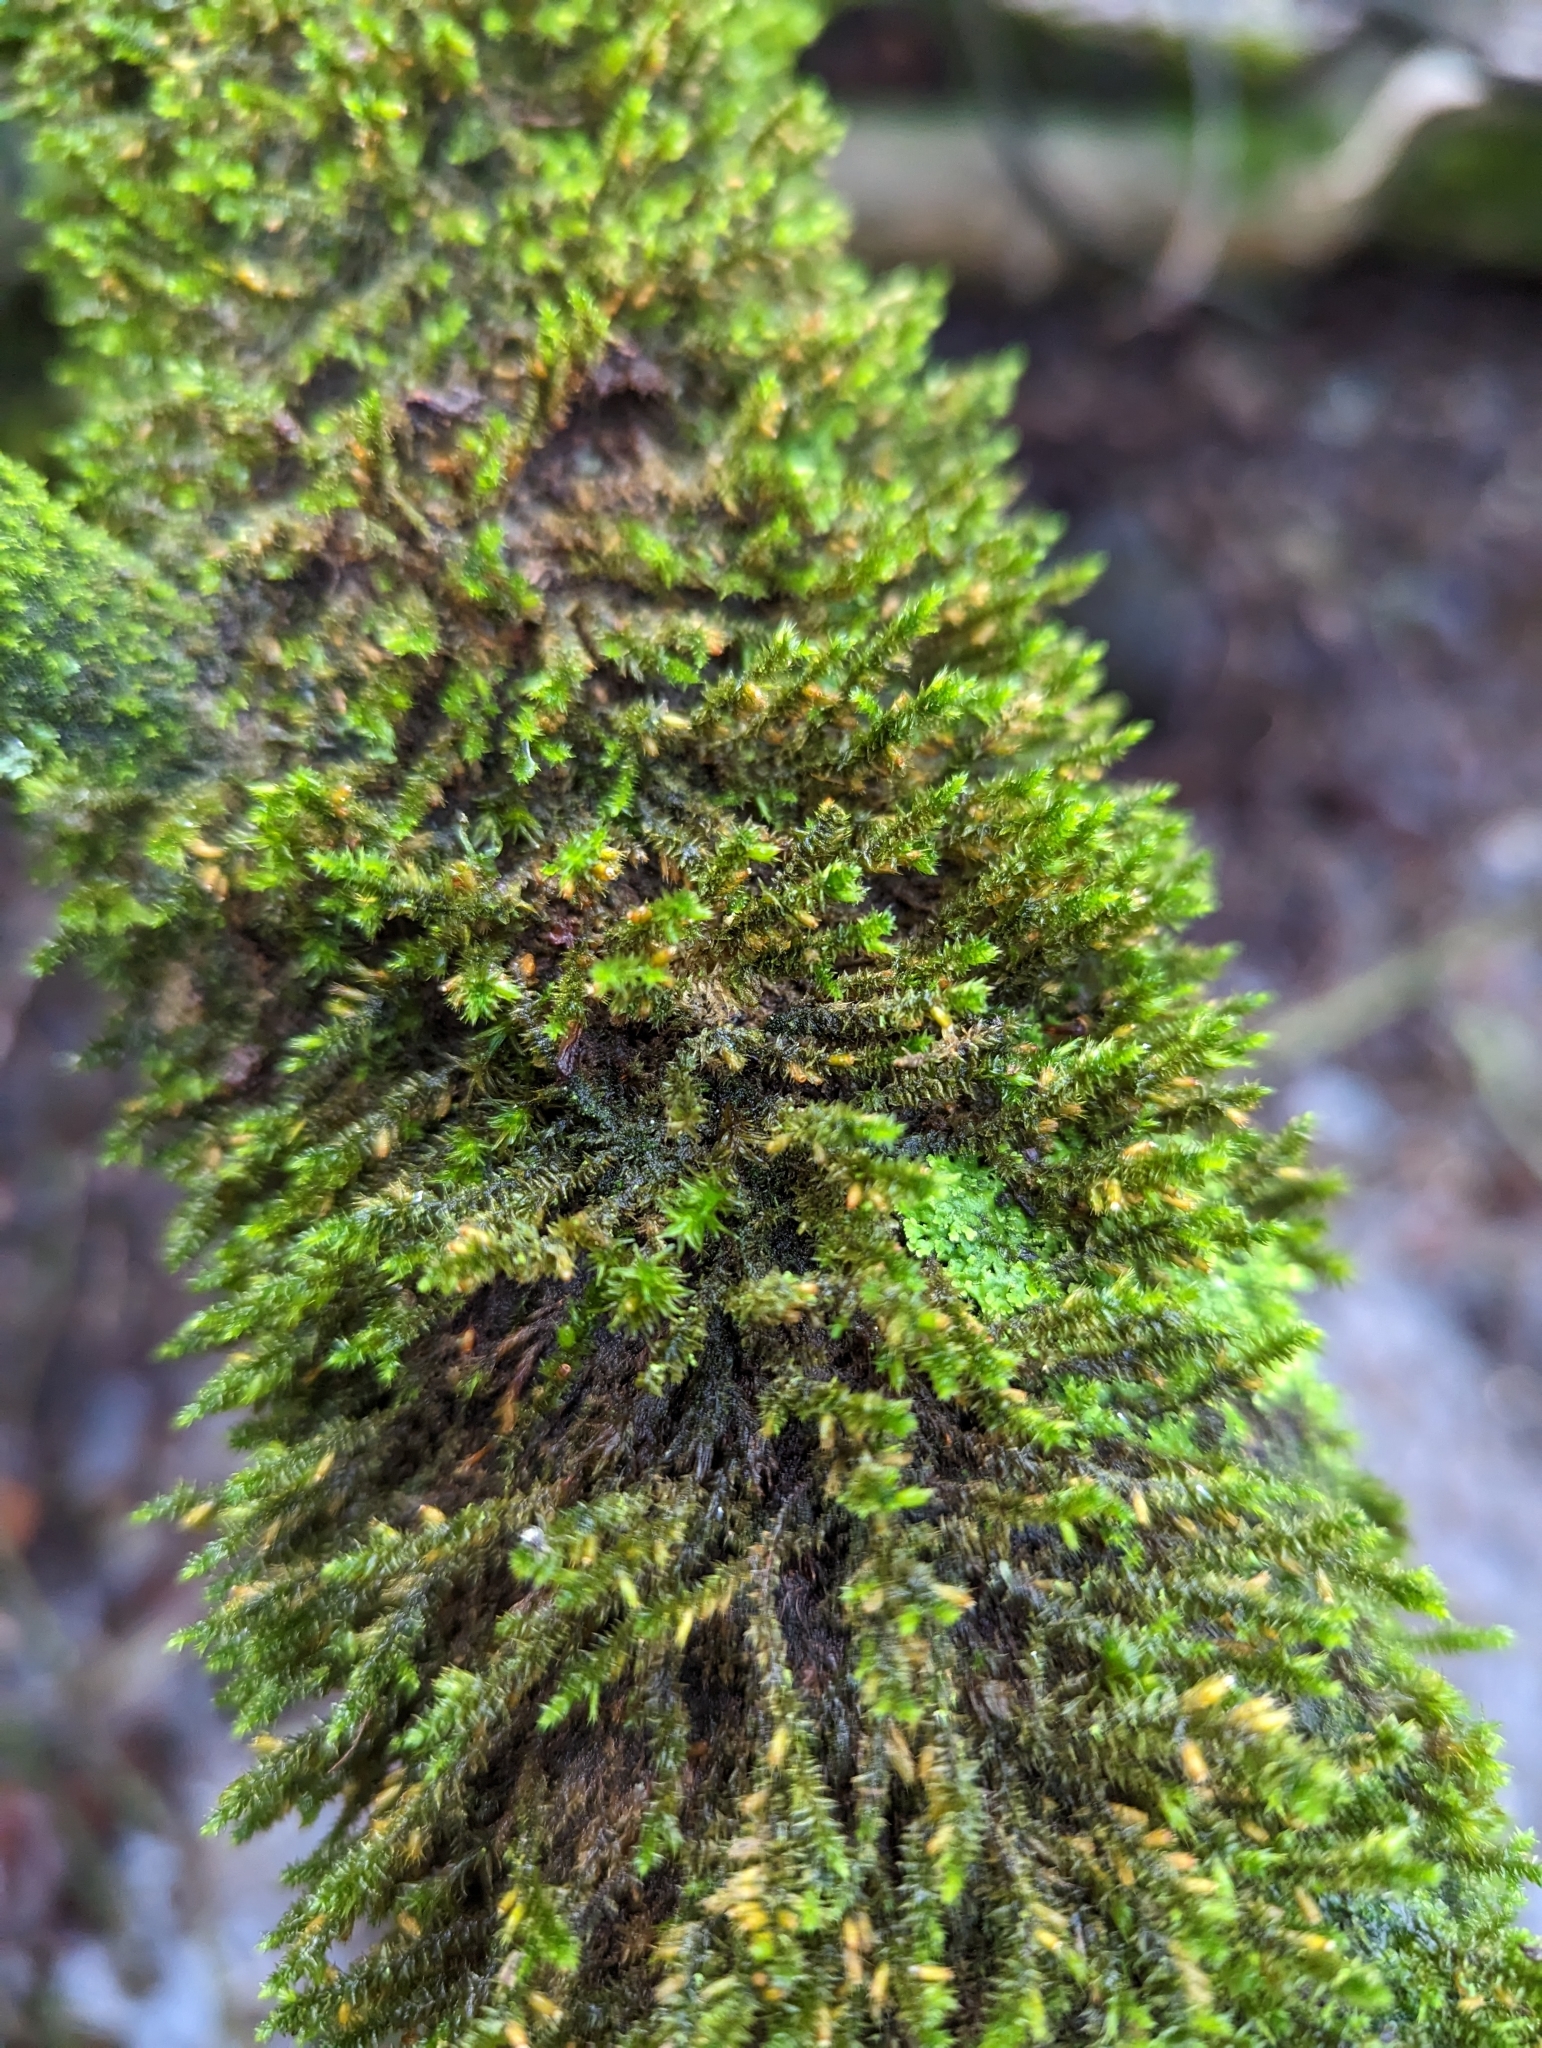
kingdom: Plantae
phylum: Bryophyta
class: Bryopsida
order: Hypnales
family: Cryphaeaceae
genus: Cryphaea
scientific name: Cryphaea heteromalla
